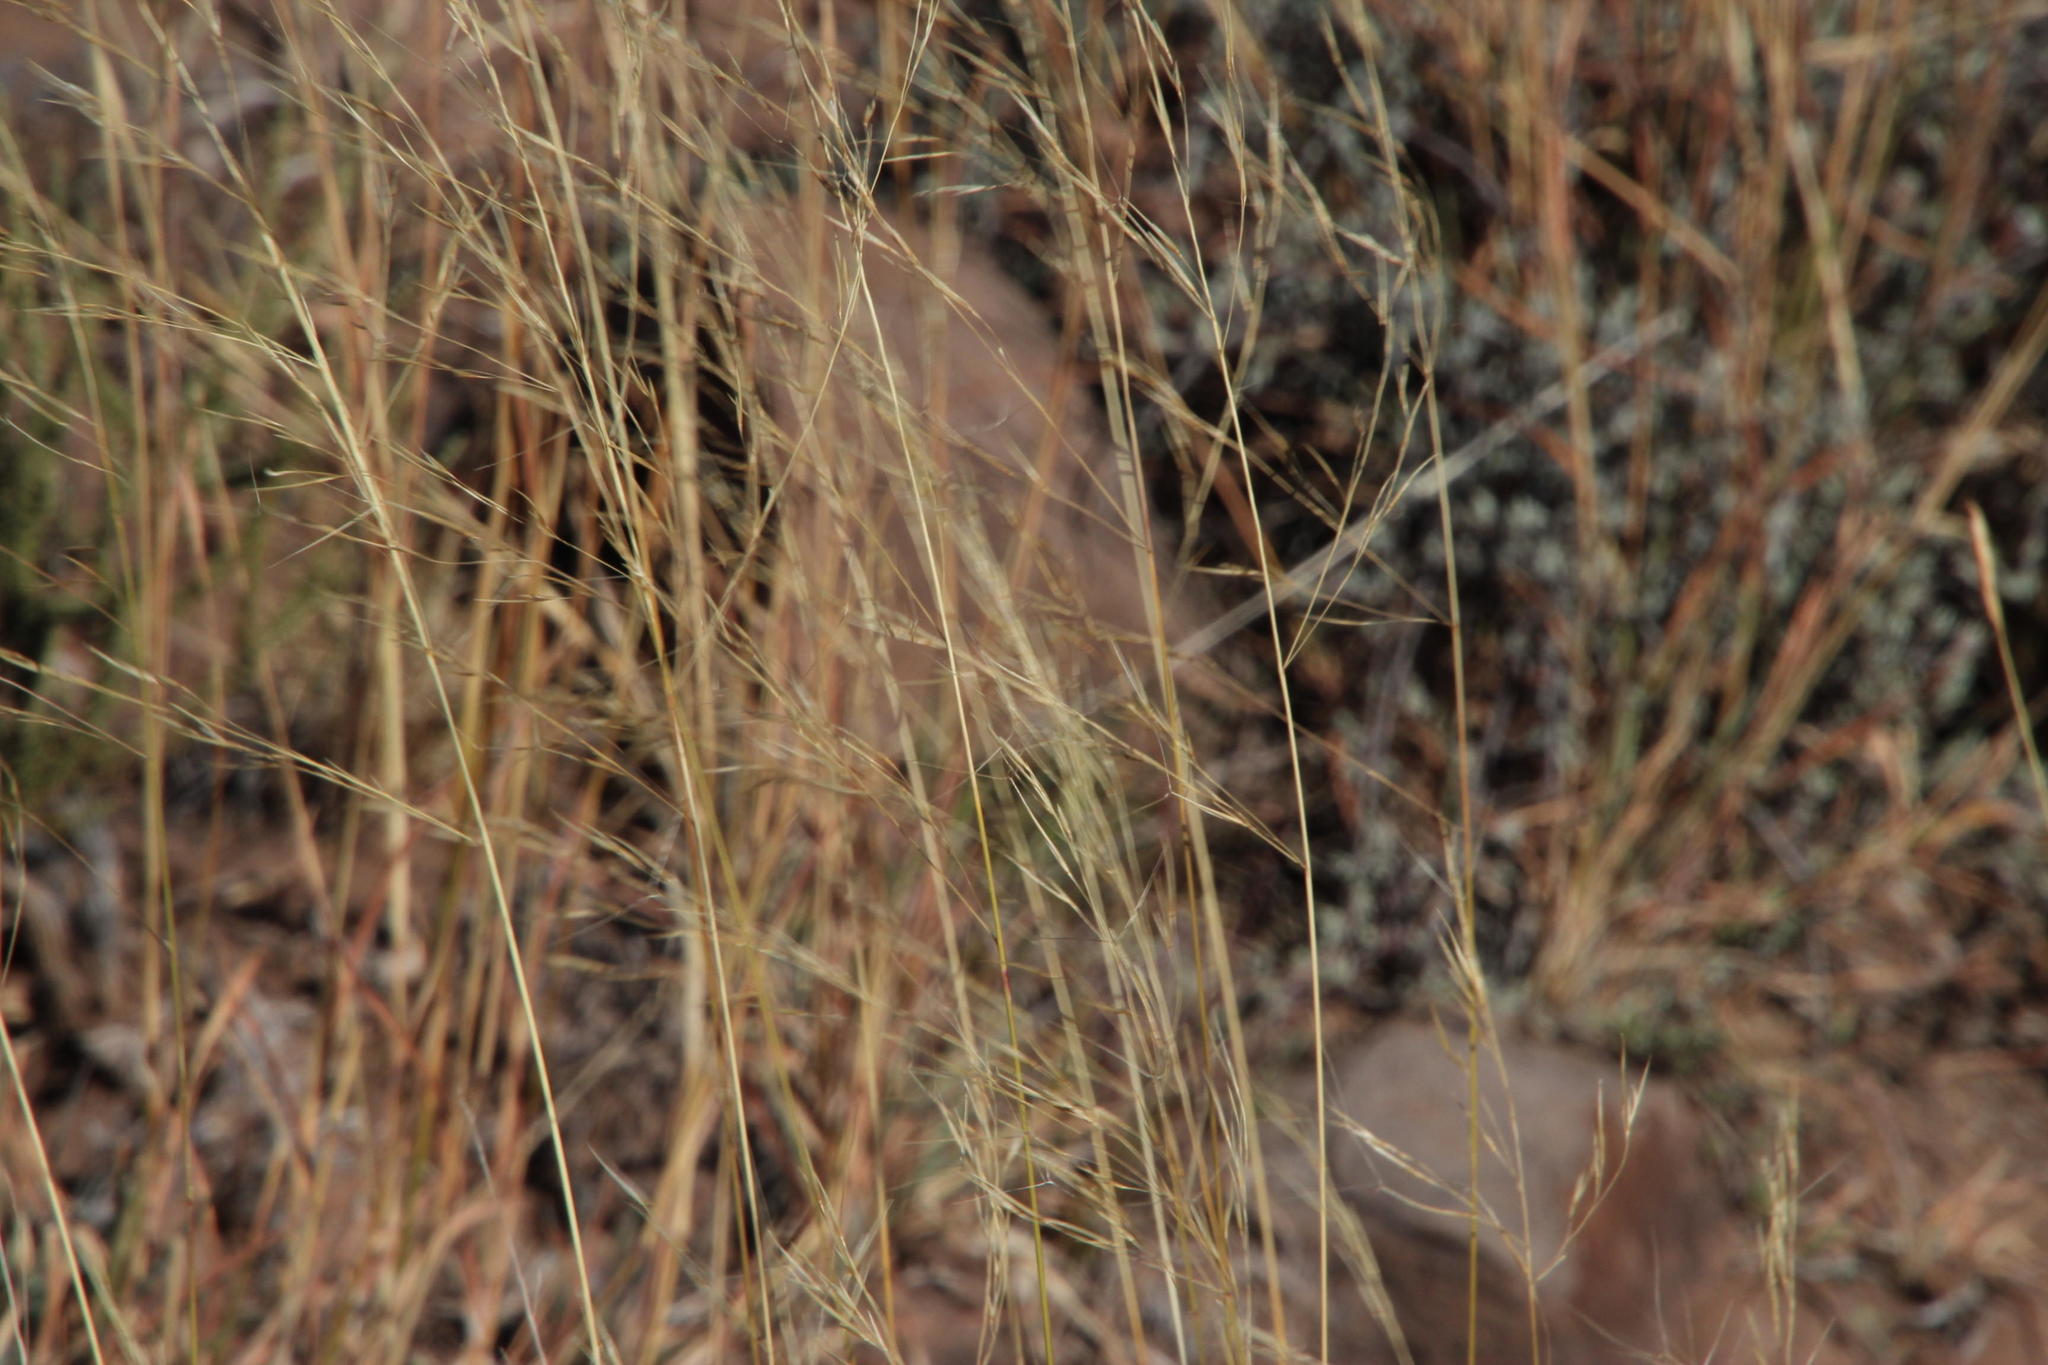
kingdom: Plantae
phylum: Tracheophyta
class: Liliopsida
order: Poales
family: Poaceae
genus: Aristida
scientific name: Aristida diffusa
